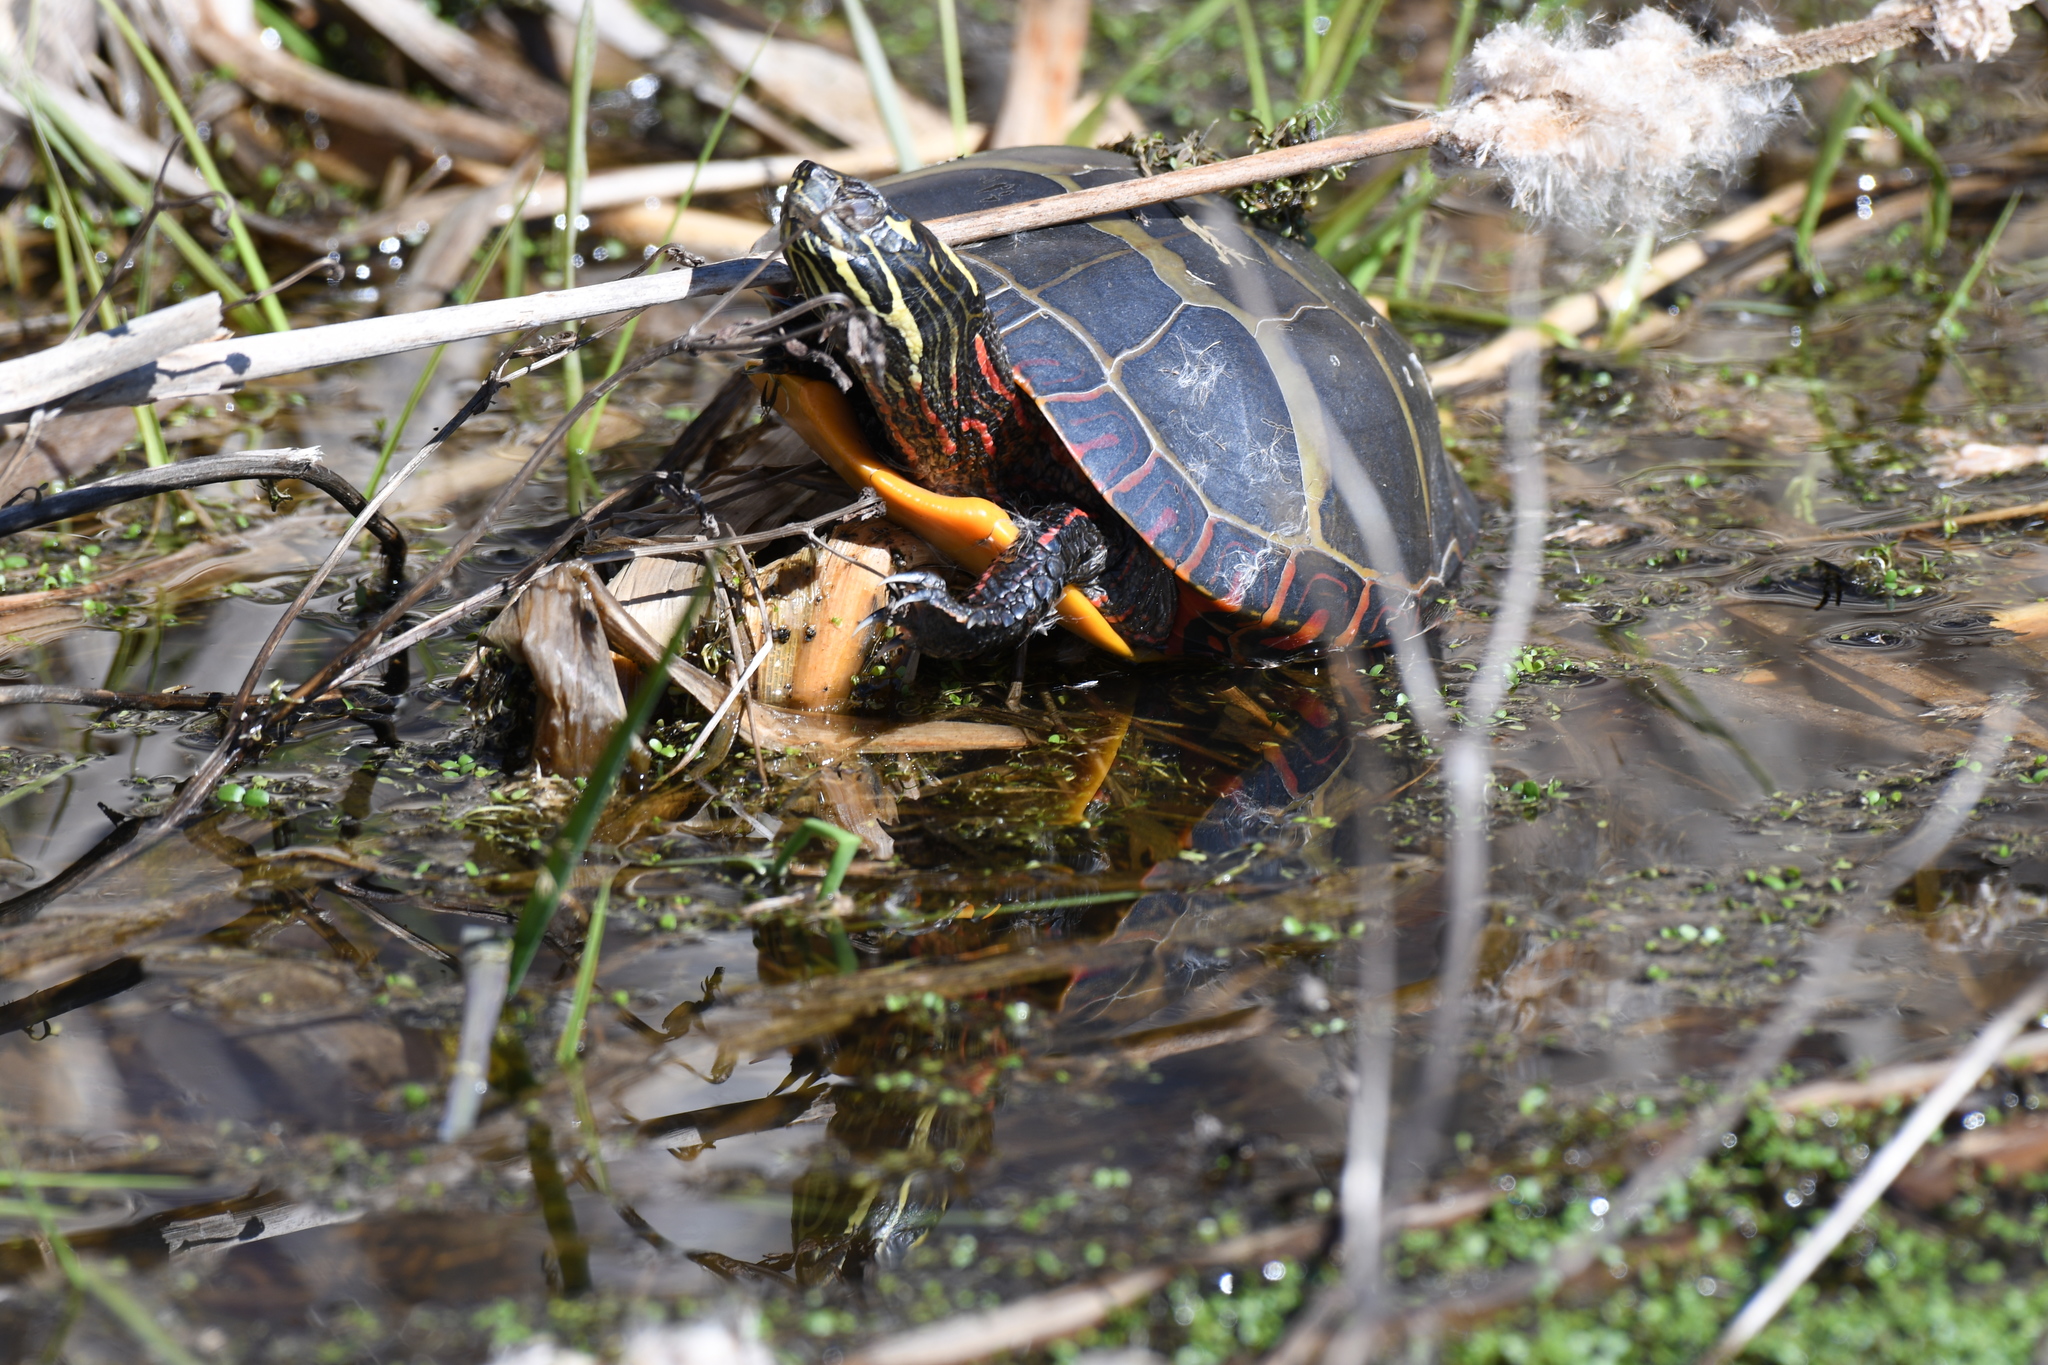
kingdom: Animalia
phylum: Chordata
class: Testudines
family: Emydidae
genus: Chrysemys
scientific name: Chrysemys picta
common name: Painted turtle
